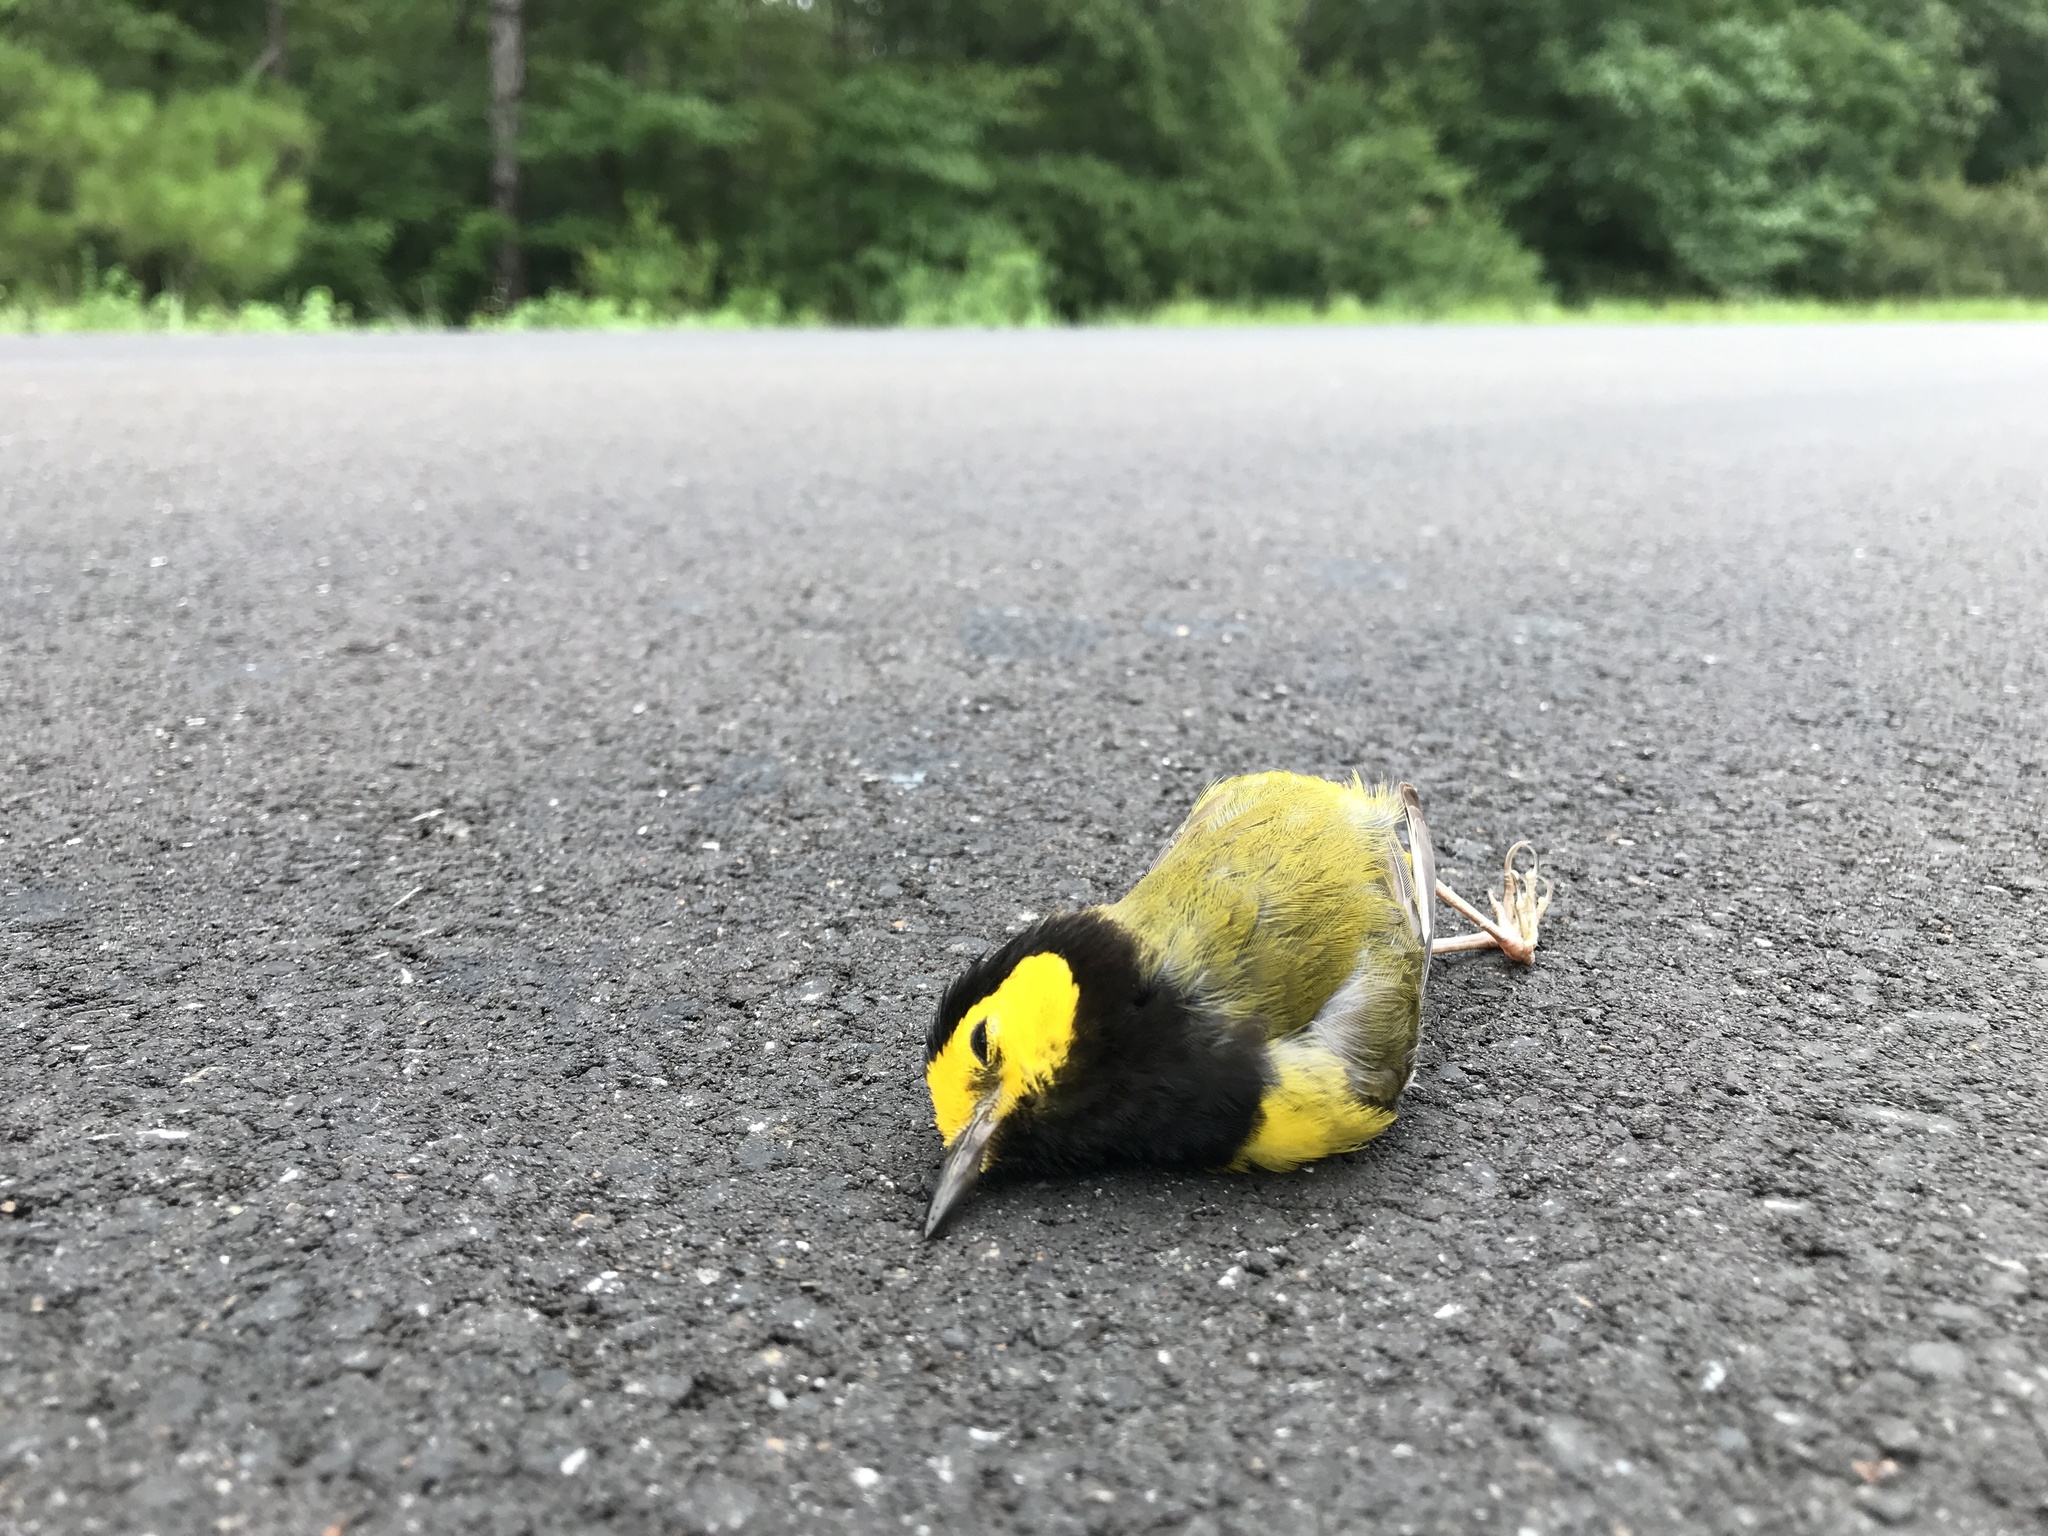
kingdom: Animalia
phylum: Chordata
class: Aves
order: Passeriformes
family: Parulidae
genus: Setophaga
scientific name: Setophaga citrina
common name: Hooded warbler
